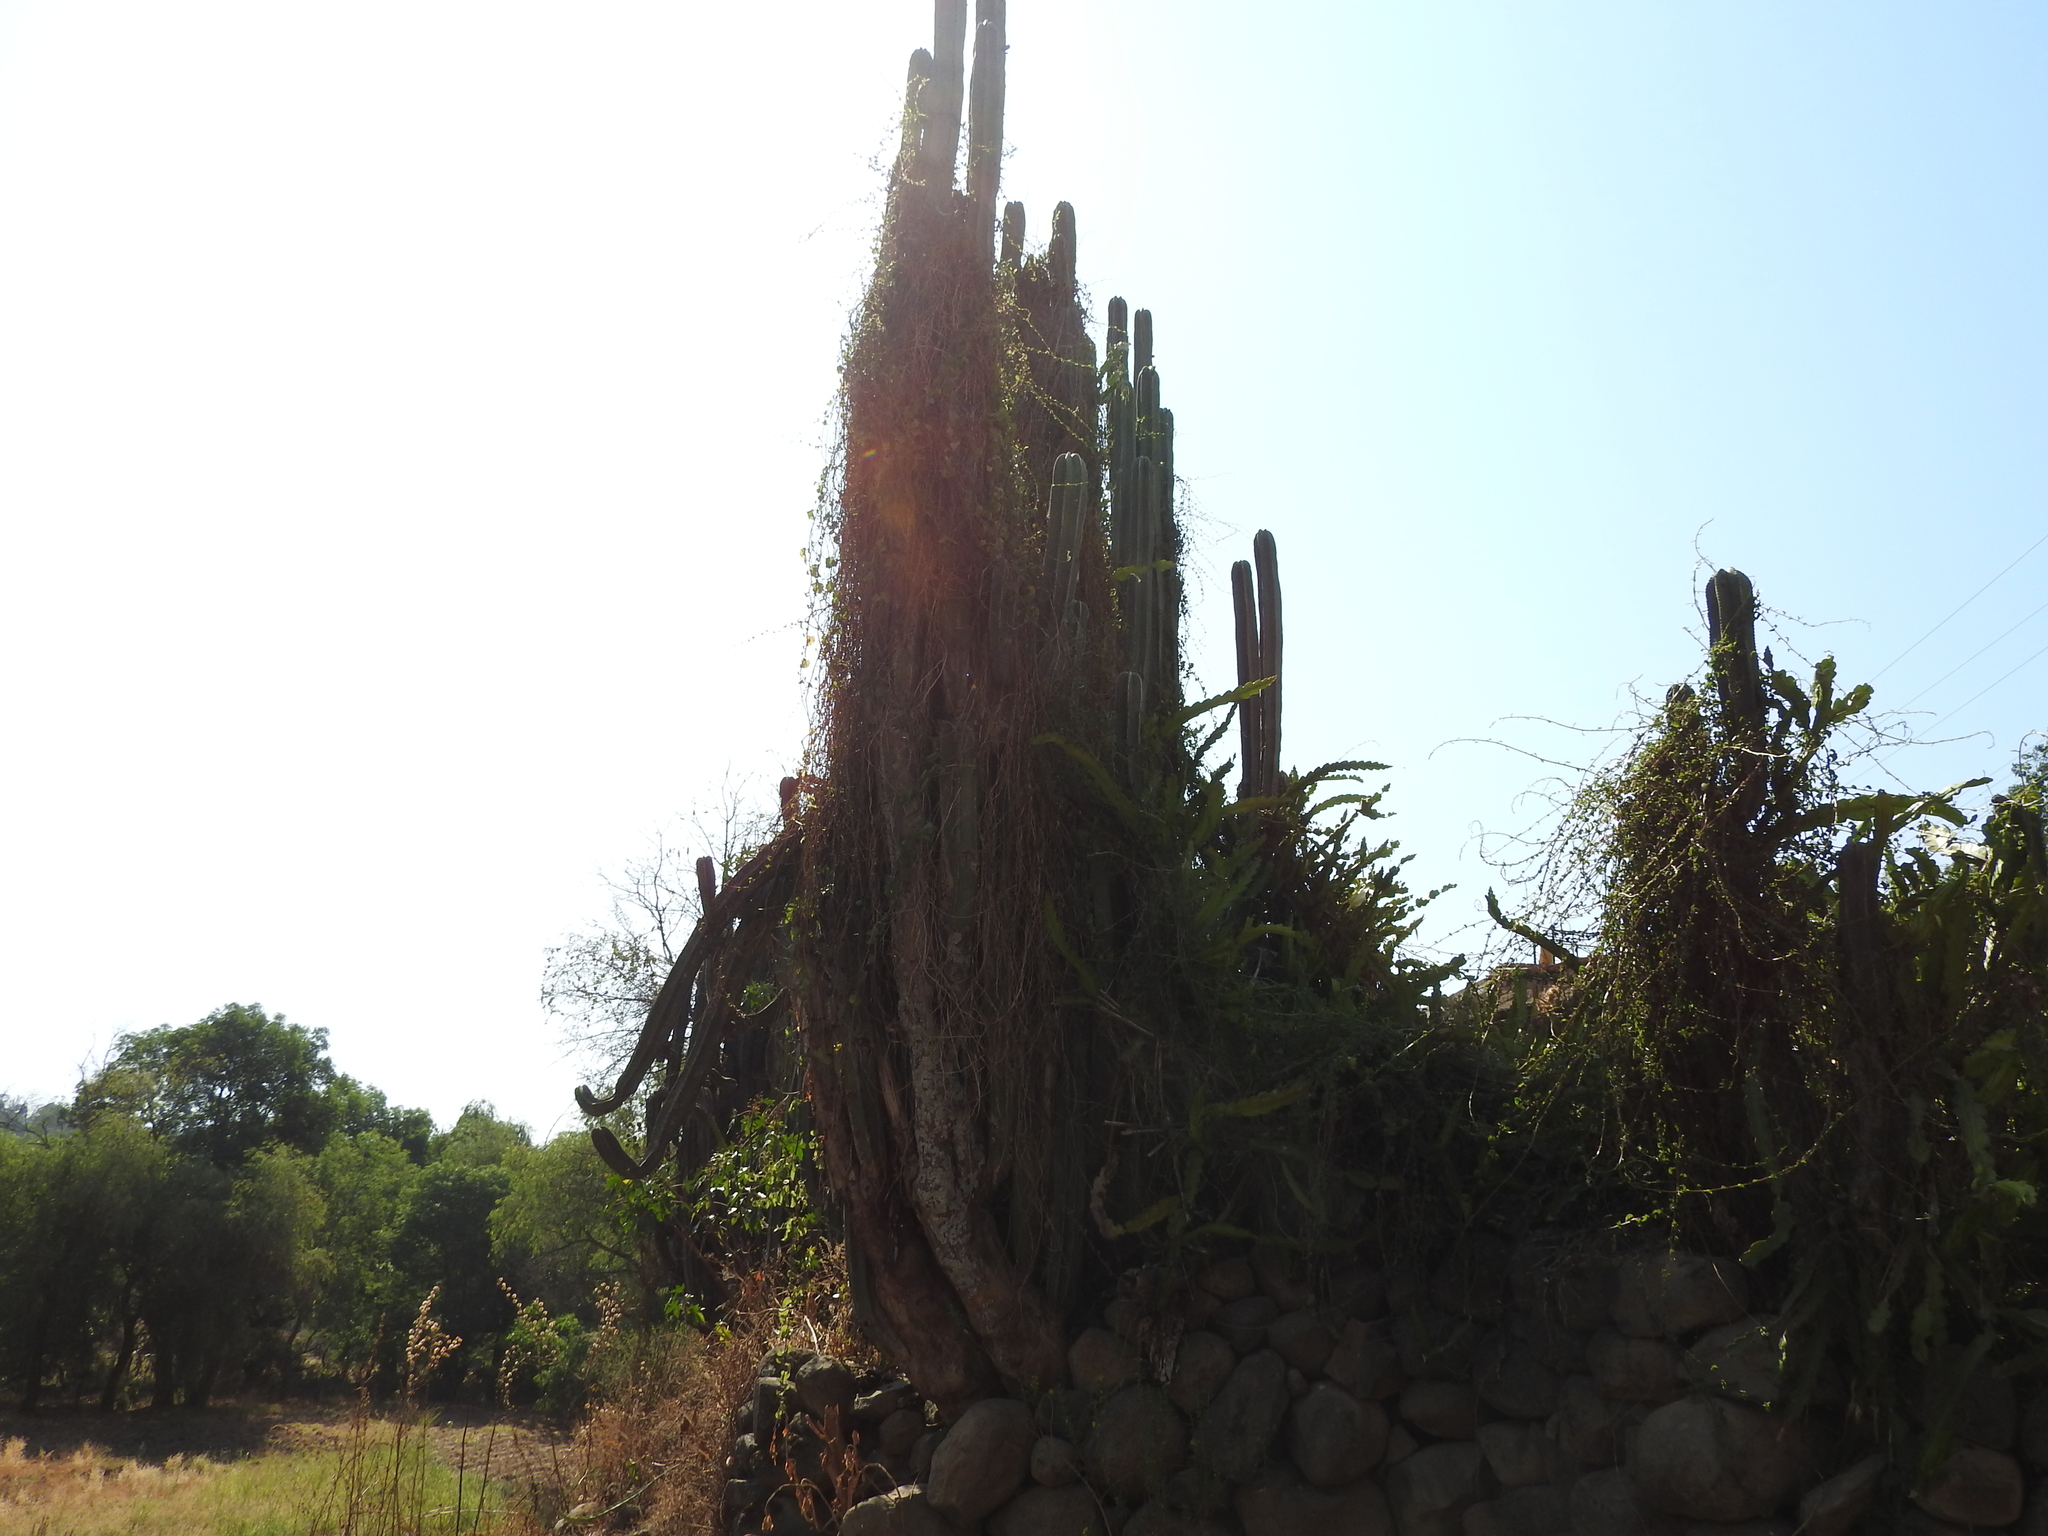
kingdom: Plantae
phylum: Tracheophyta
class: Magnoliopsida
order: Caryophyllales
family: Cactaceae
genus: Marginatocereus
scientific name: Marginatocereus marginatus
